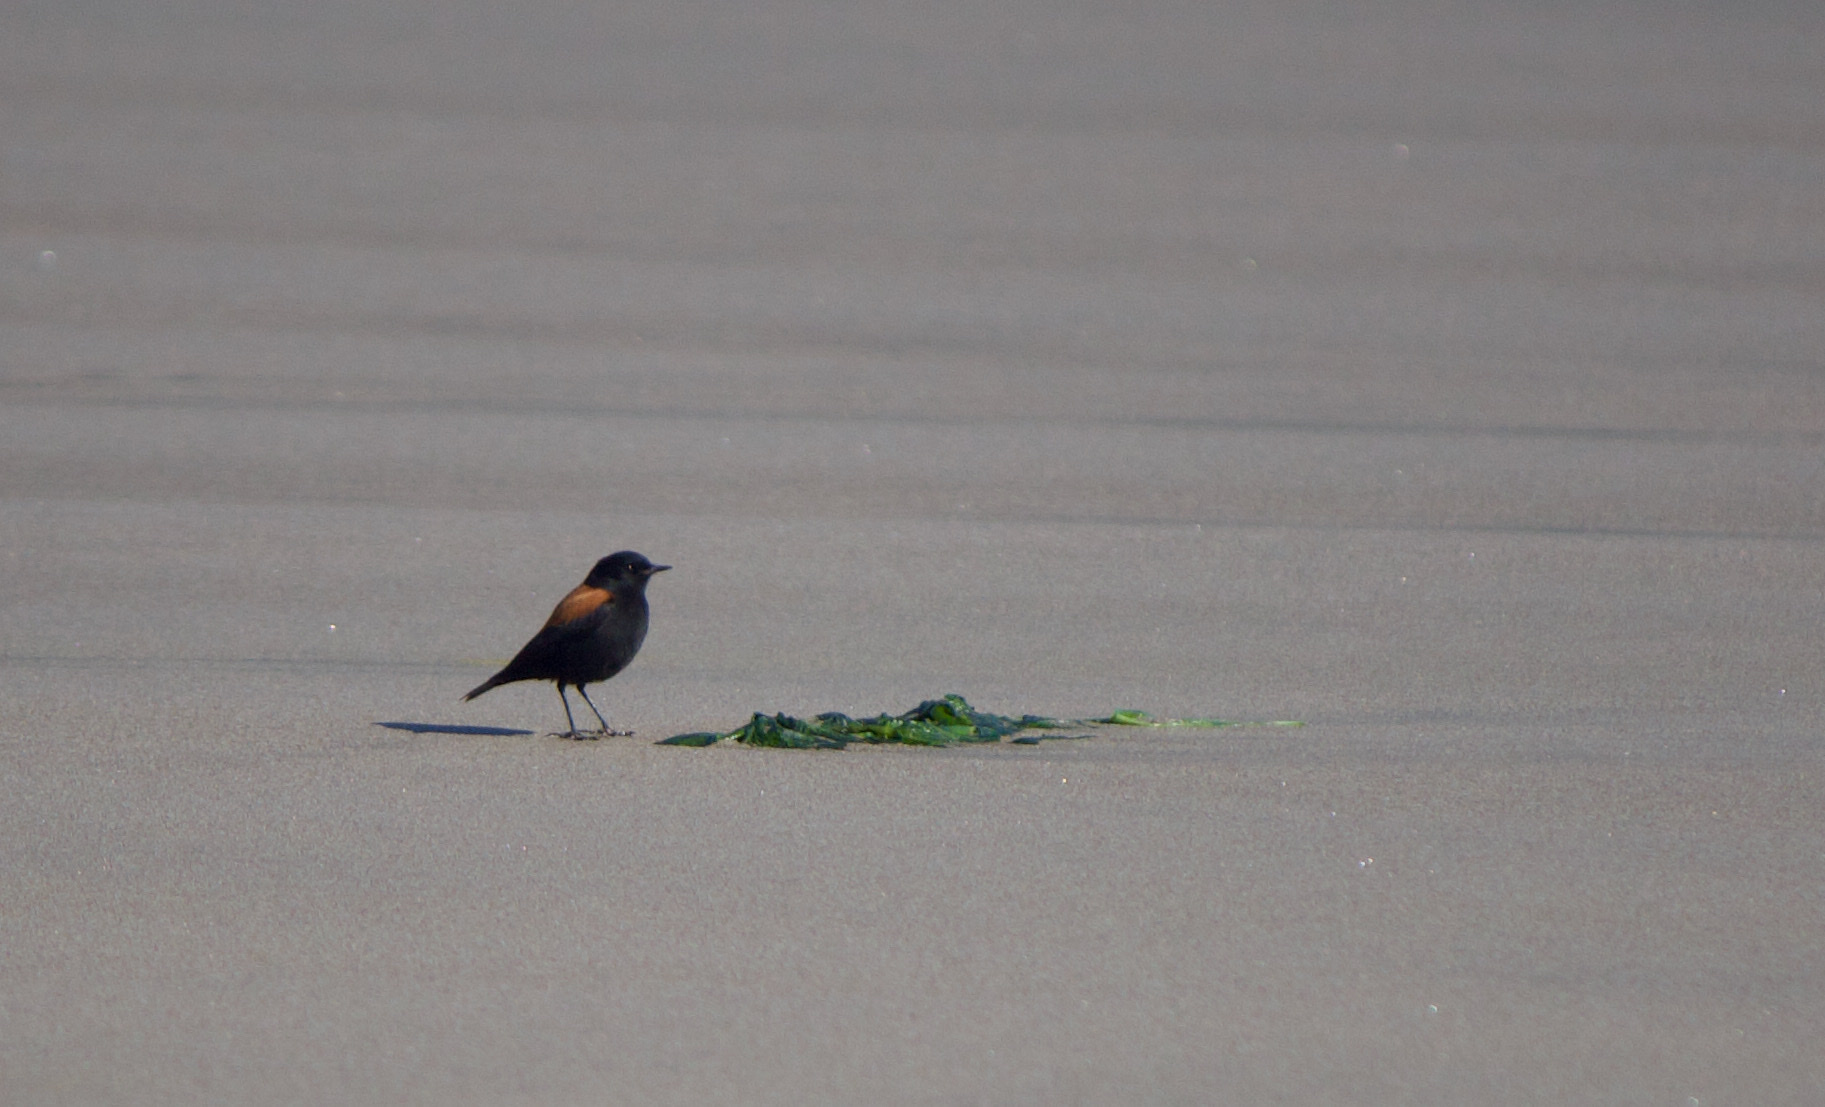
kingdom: Animalia
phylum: Chordata
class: Aves
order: Passeriformes
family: Tyrannidae
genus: Lessonia
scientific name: Lessonia rufa
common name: Austral negrito
